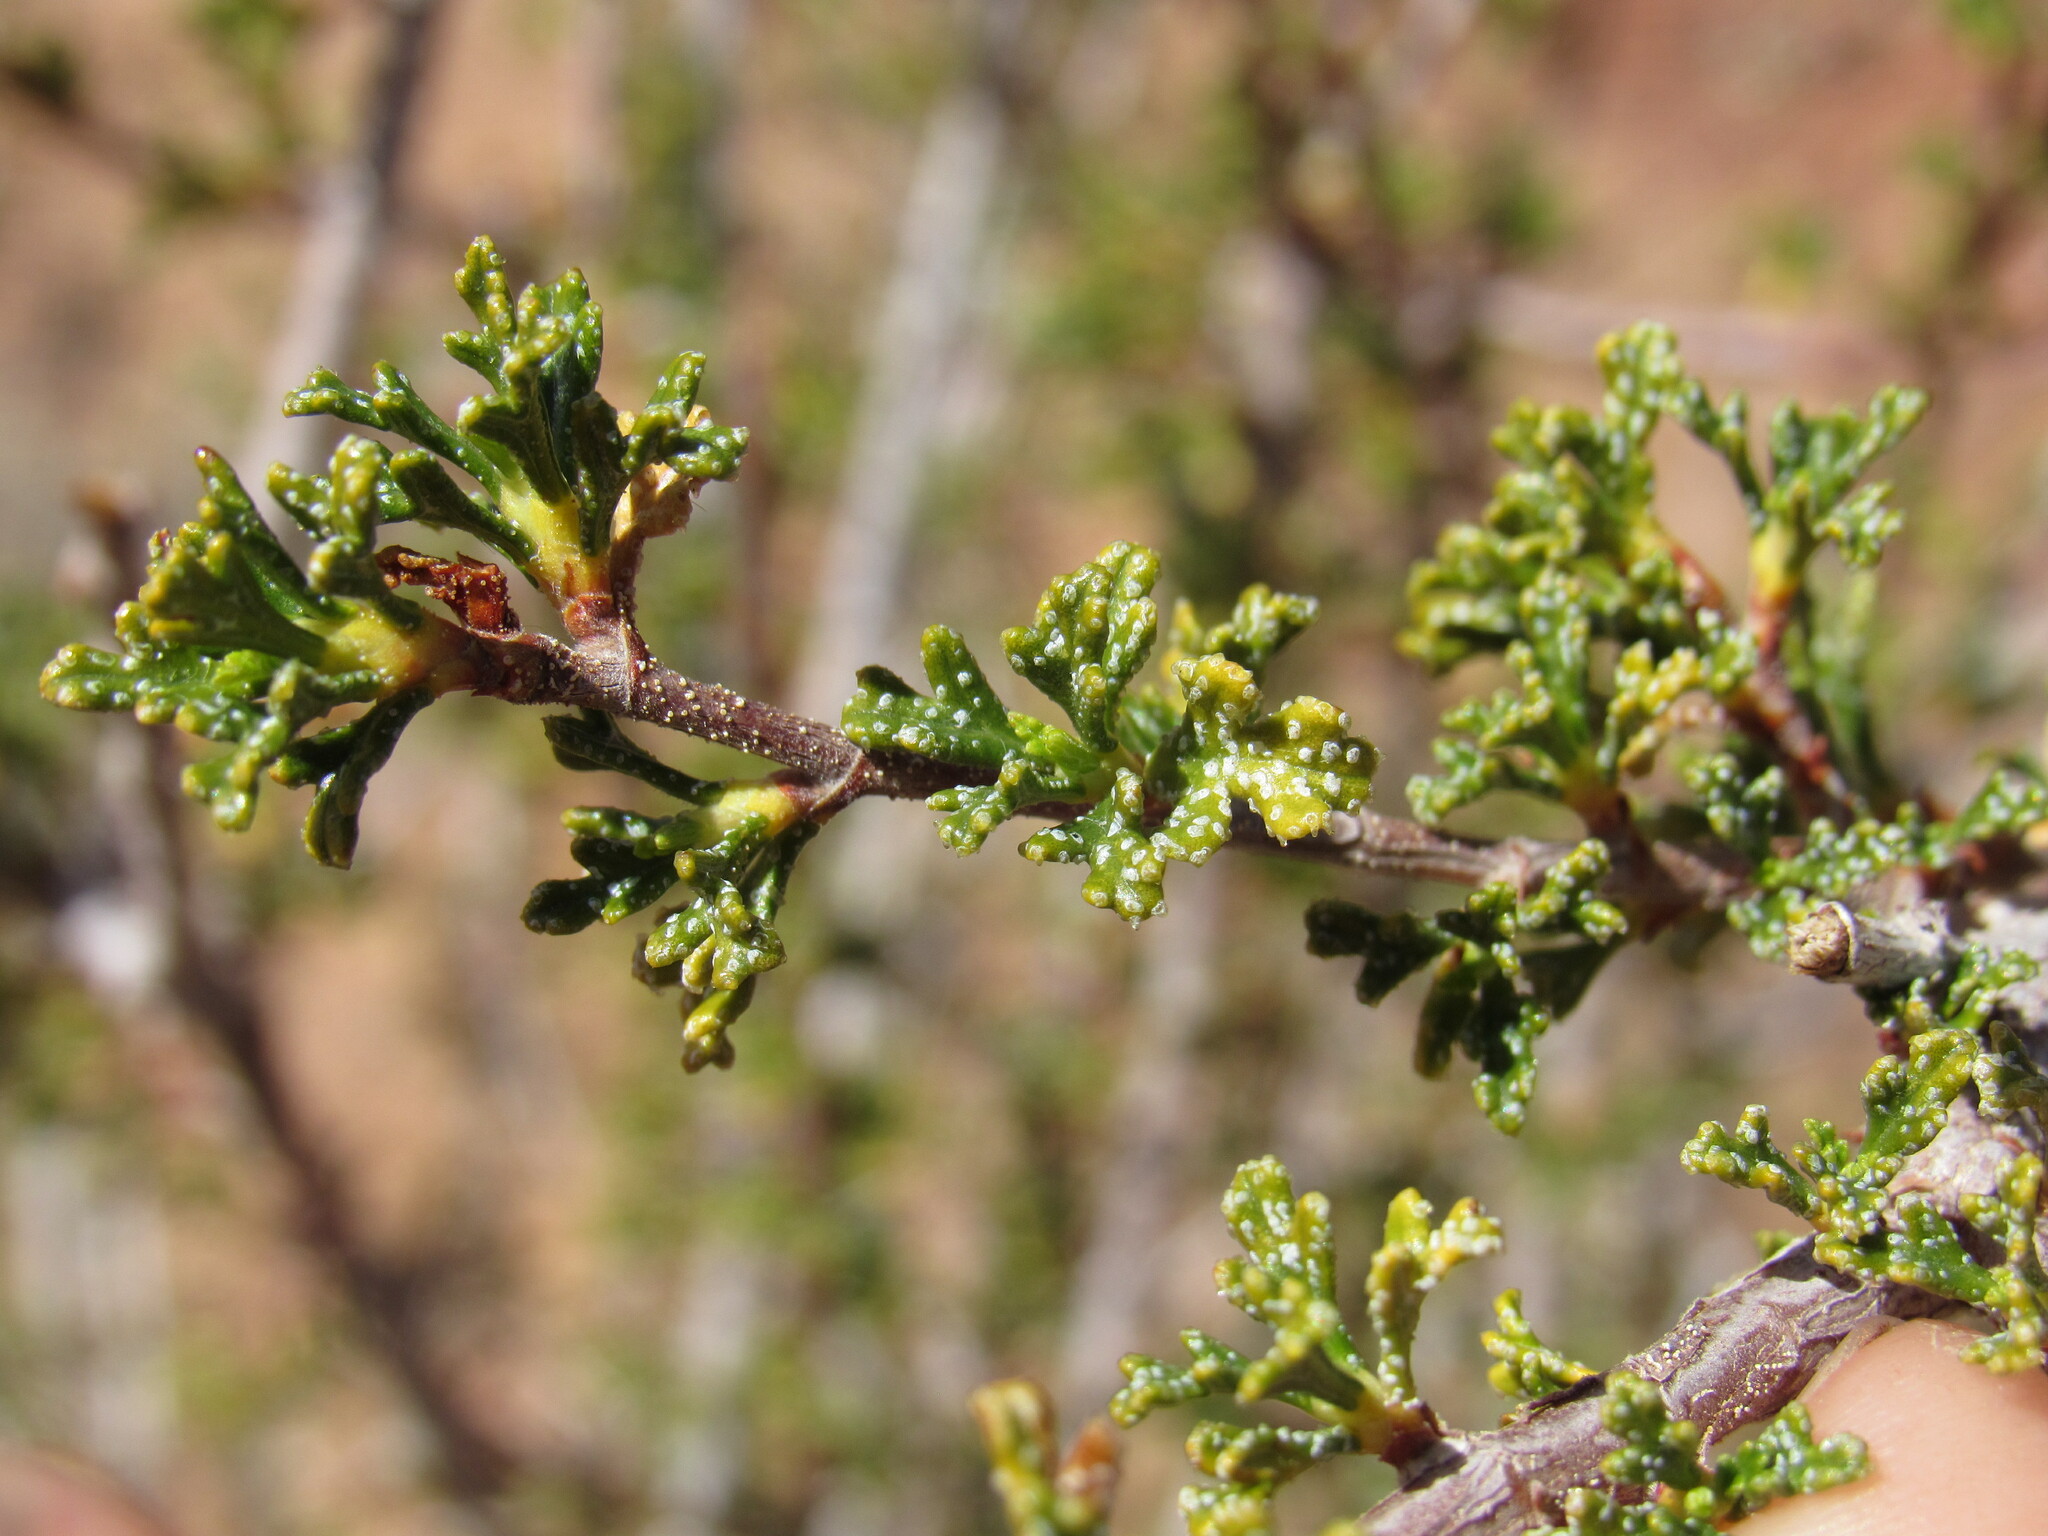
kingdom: Plantae
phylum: Tracheophyta
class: Magnoliopsida
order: Rosales
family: Rosaceae
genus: Purshia
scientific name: Purshia stansburiana
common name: Stansbury's cliffrose
